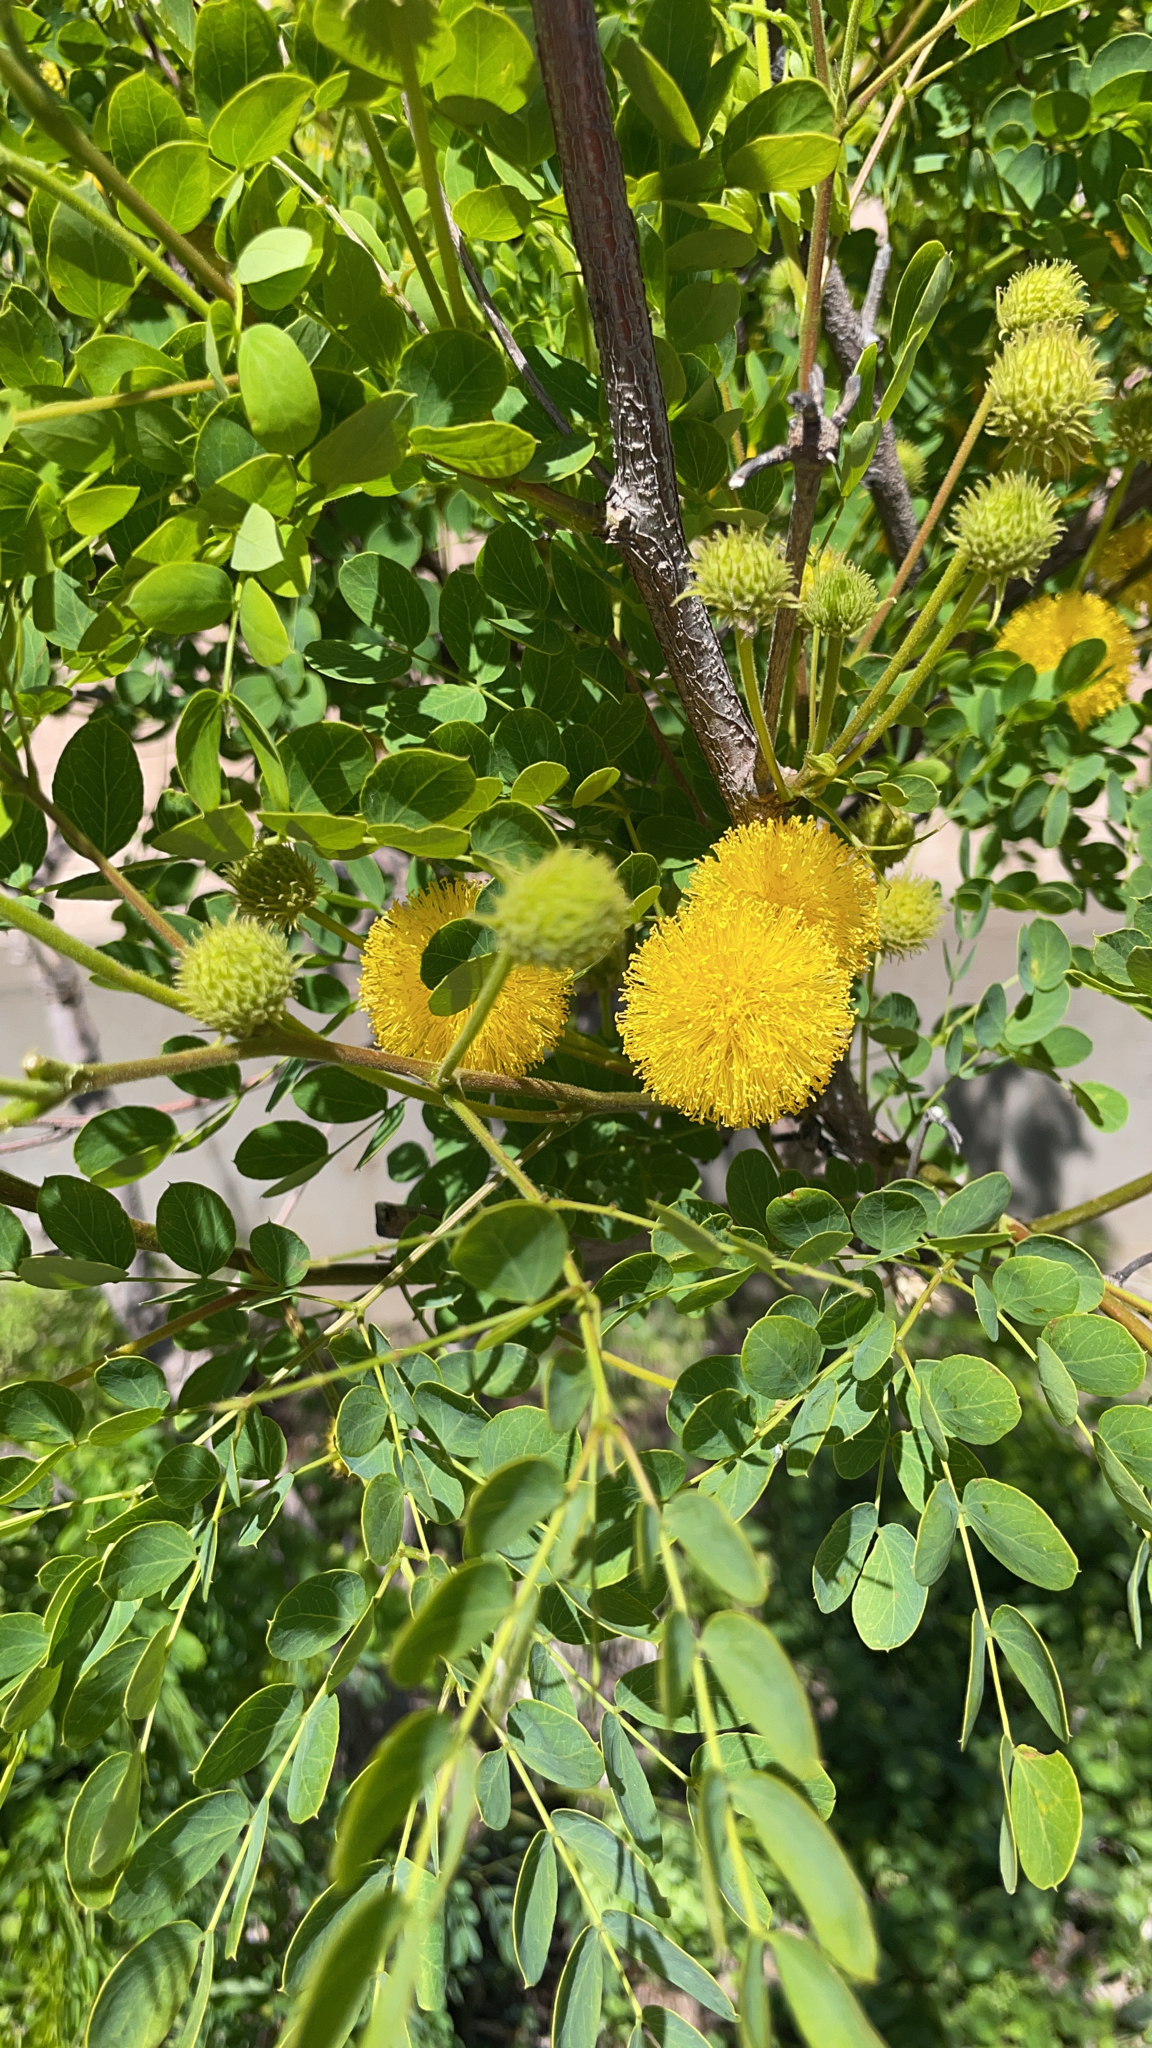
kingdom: Plantae
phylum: Tracheophyta
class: Magnoliopsida
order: Fabales
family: Fabaceae
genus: Leucaena
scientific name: Leucaena retusa
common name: Littleleaf leadtree
